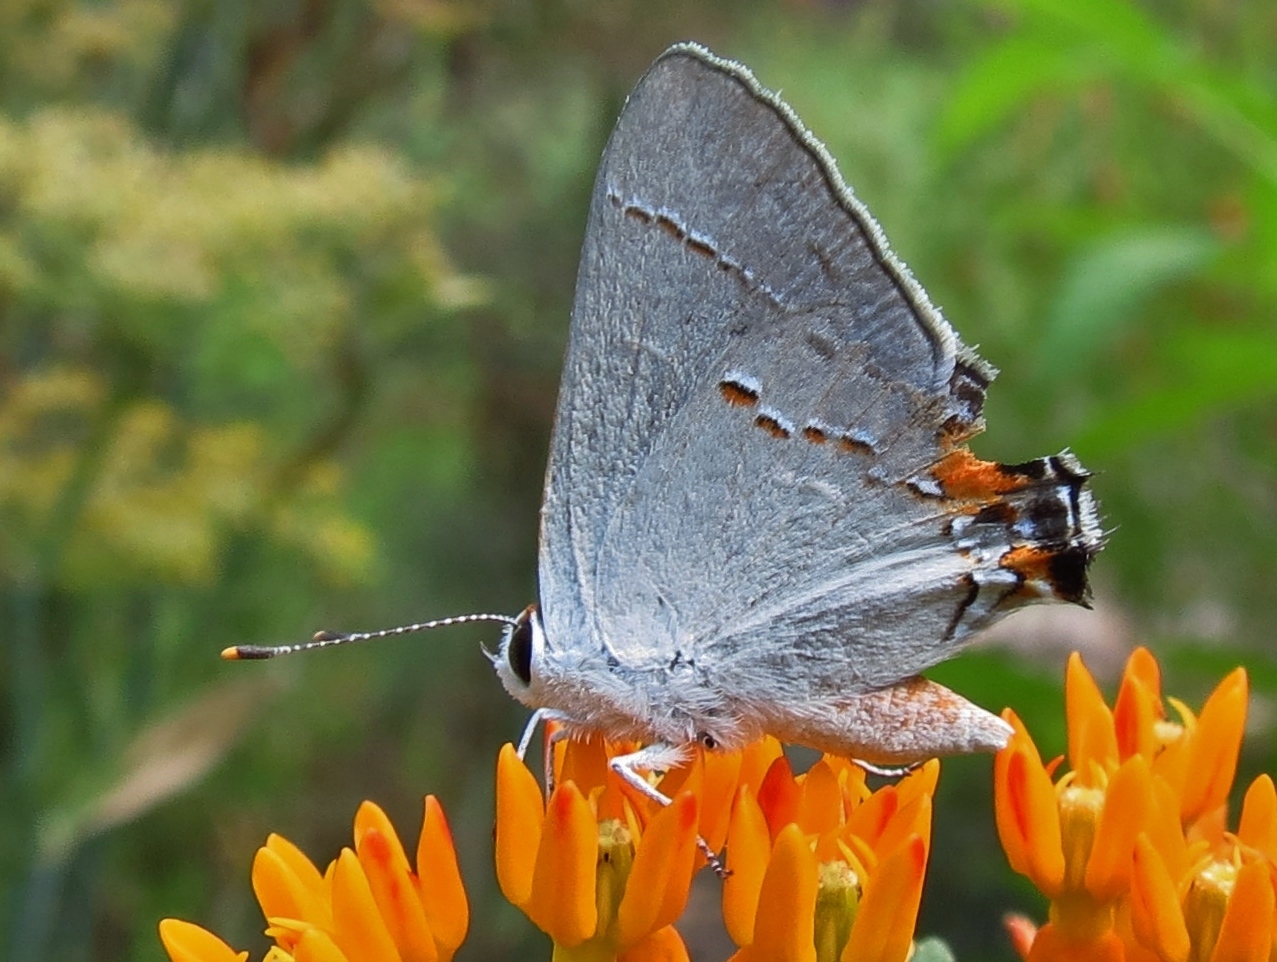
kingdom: Animalia
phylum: Arthropoda
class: Insecta
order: Lepidoptera
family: Lycaenidae
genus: Strymon
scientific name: Strymon melinus
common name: Gray hairstreak
